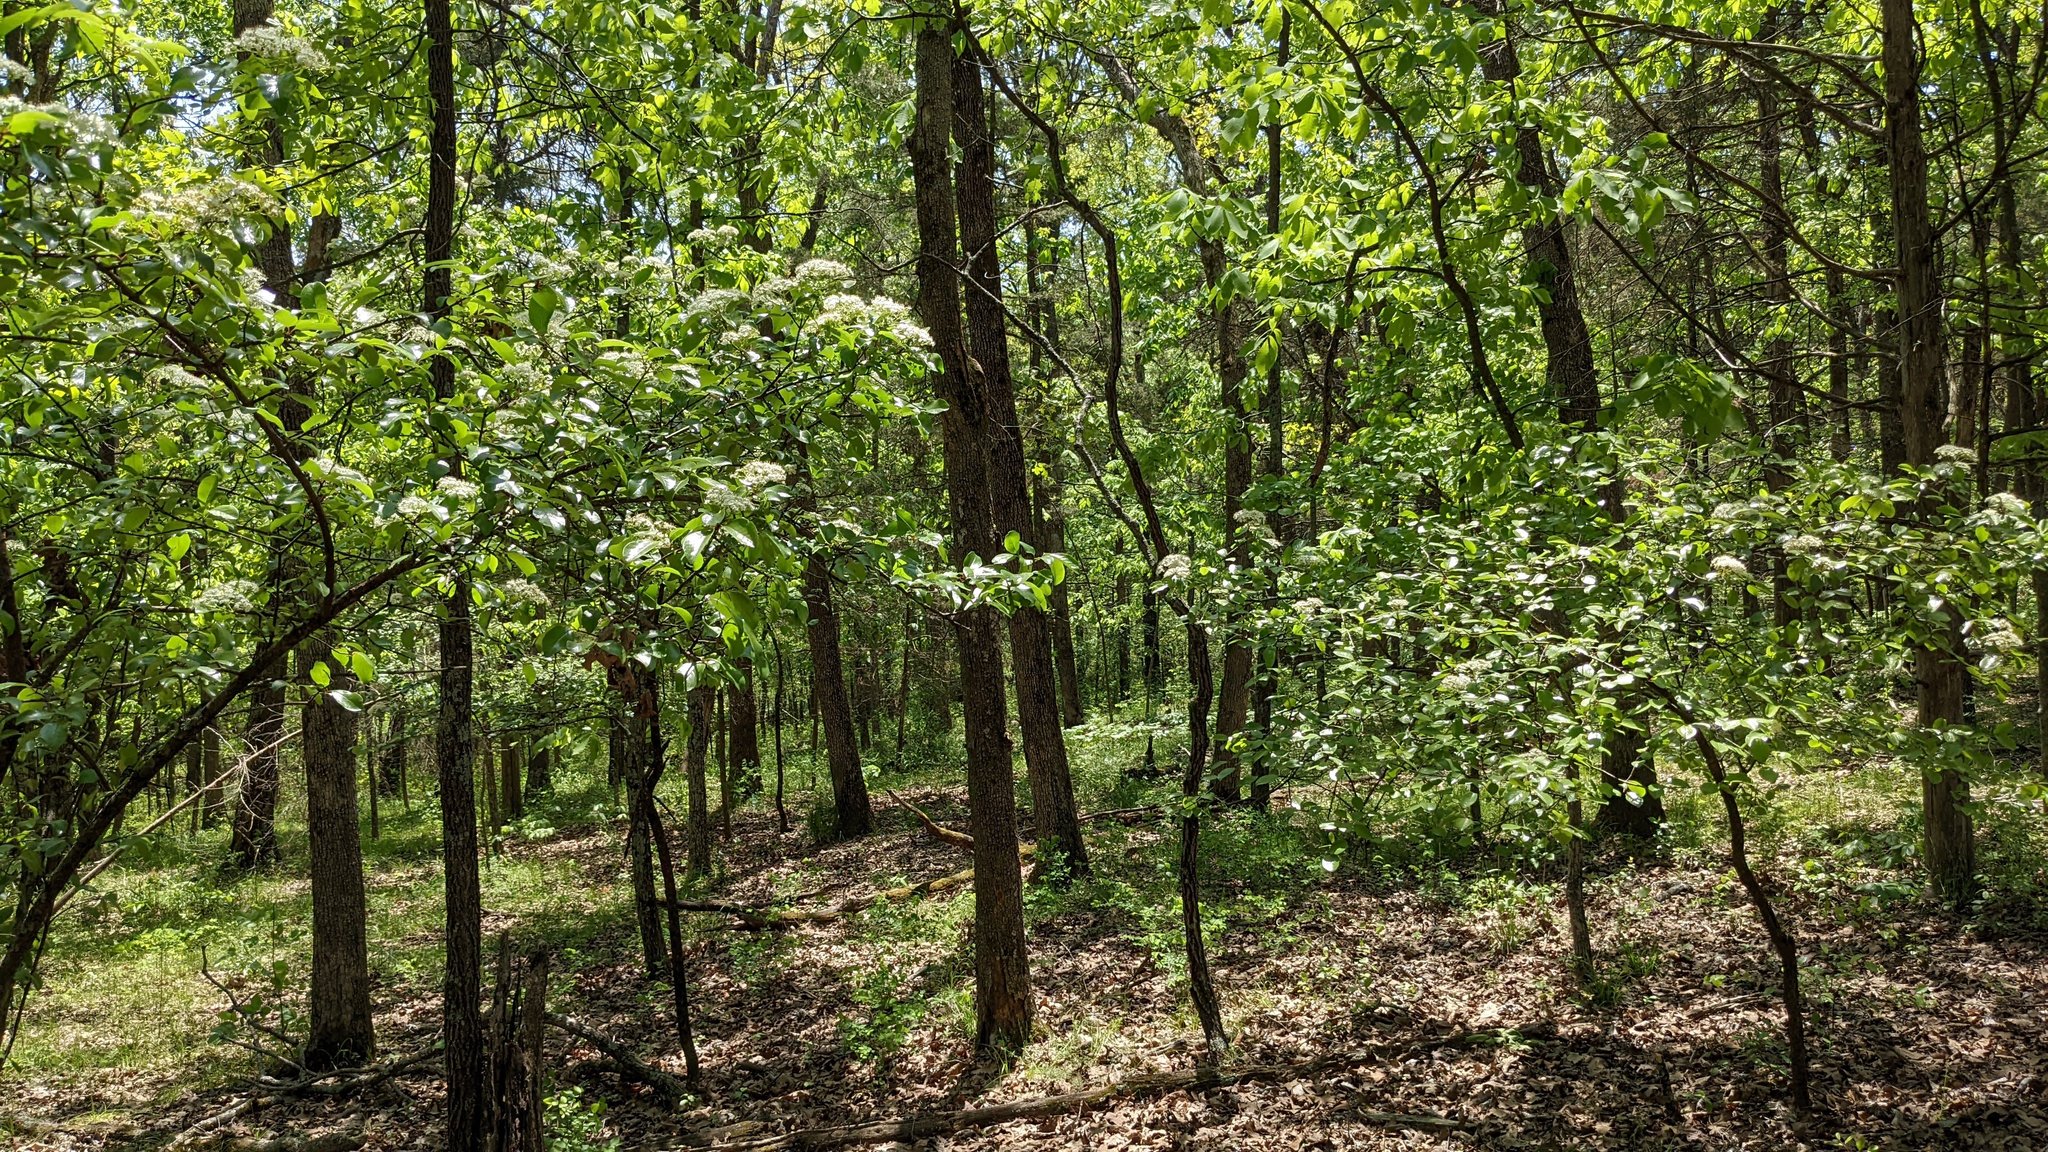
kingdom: Plantae
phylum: Tracheophyta
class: Magnoliopsida
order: Dipsacales
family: Viburnaceae
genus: Viburnum
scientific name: Viburnum rufidulum
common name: Blue haw
